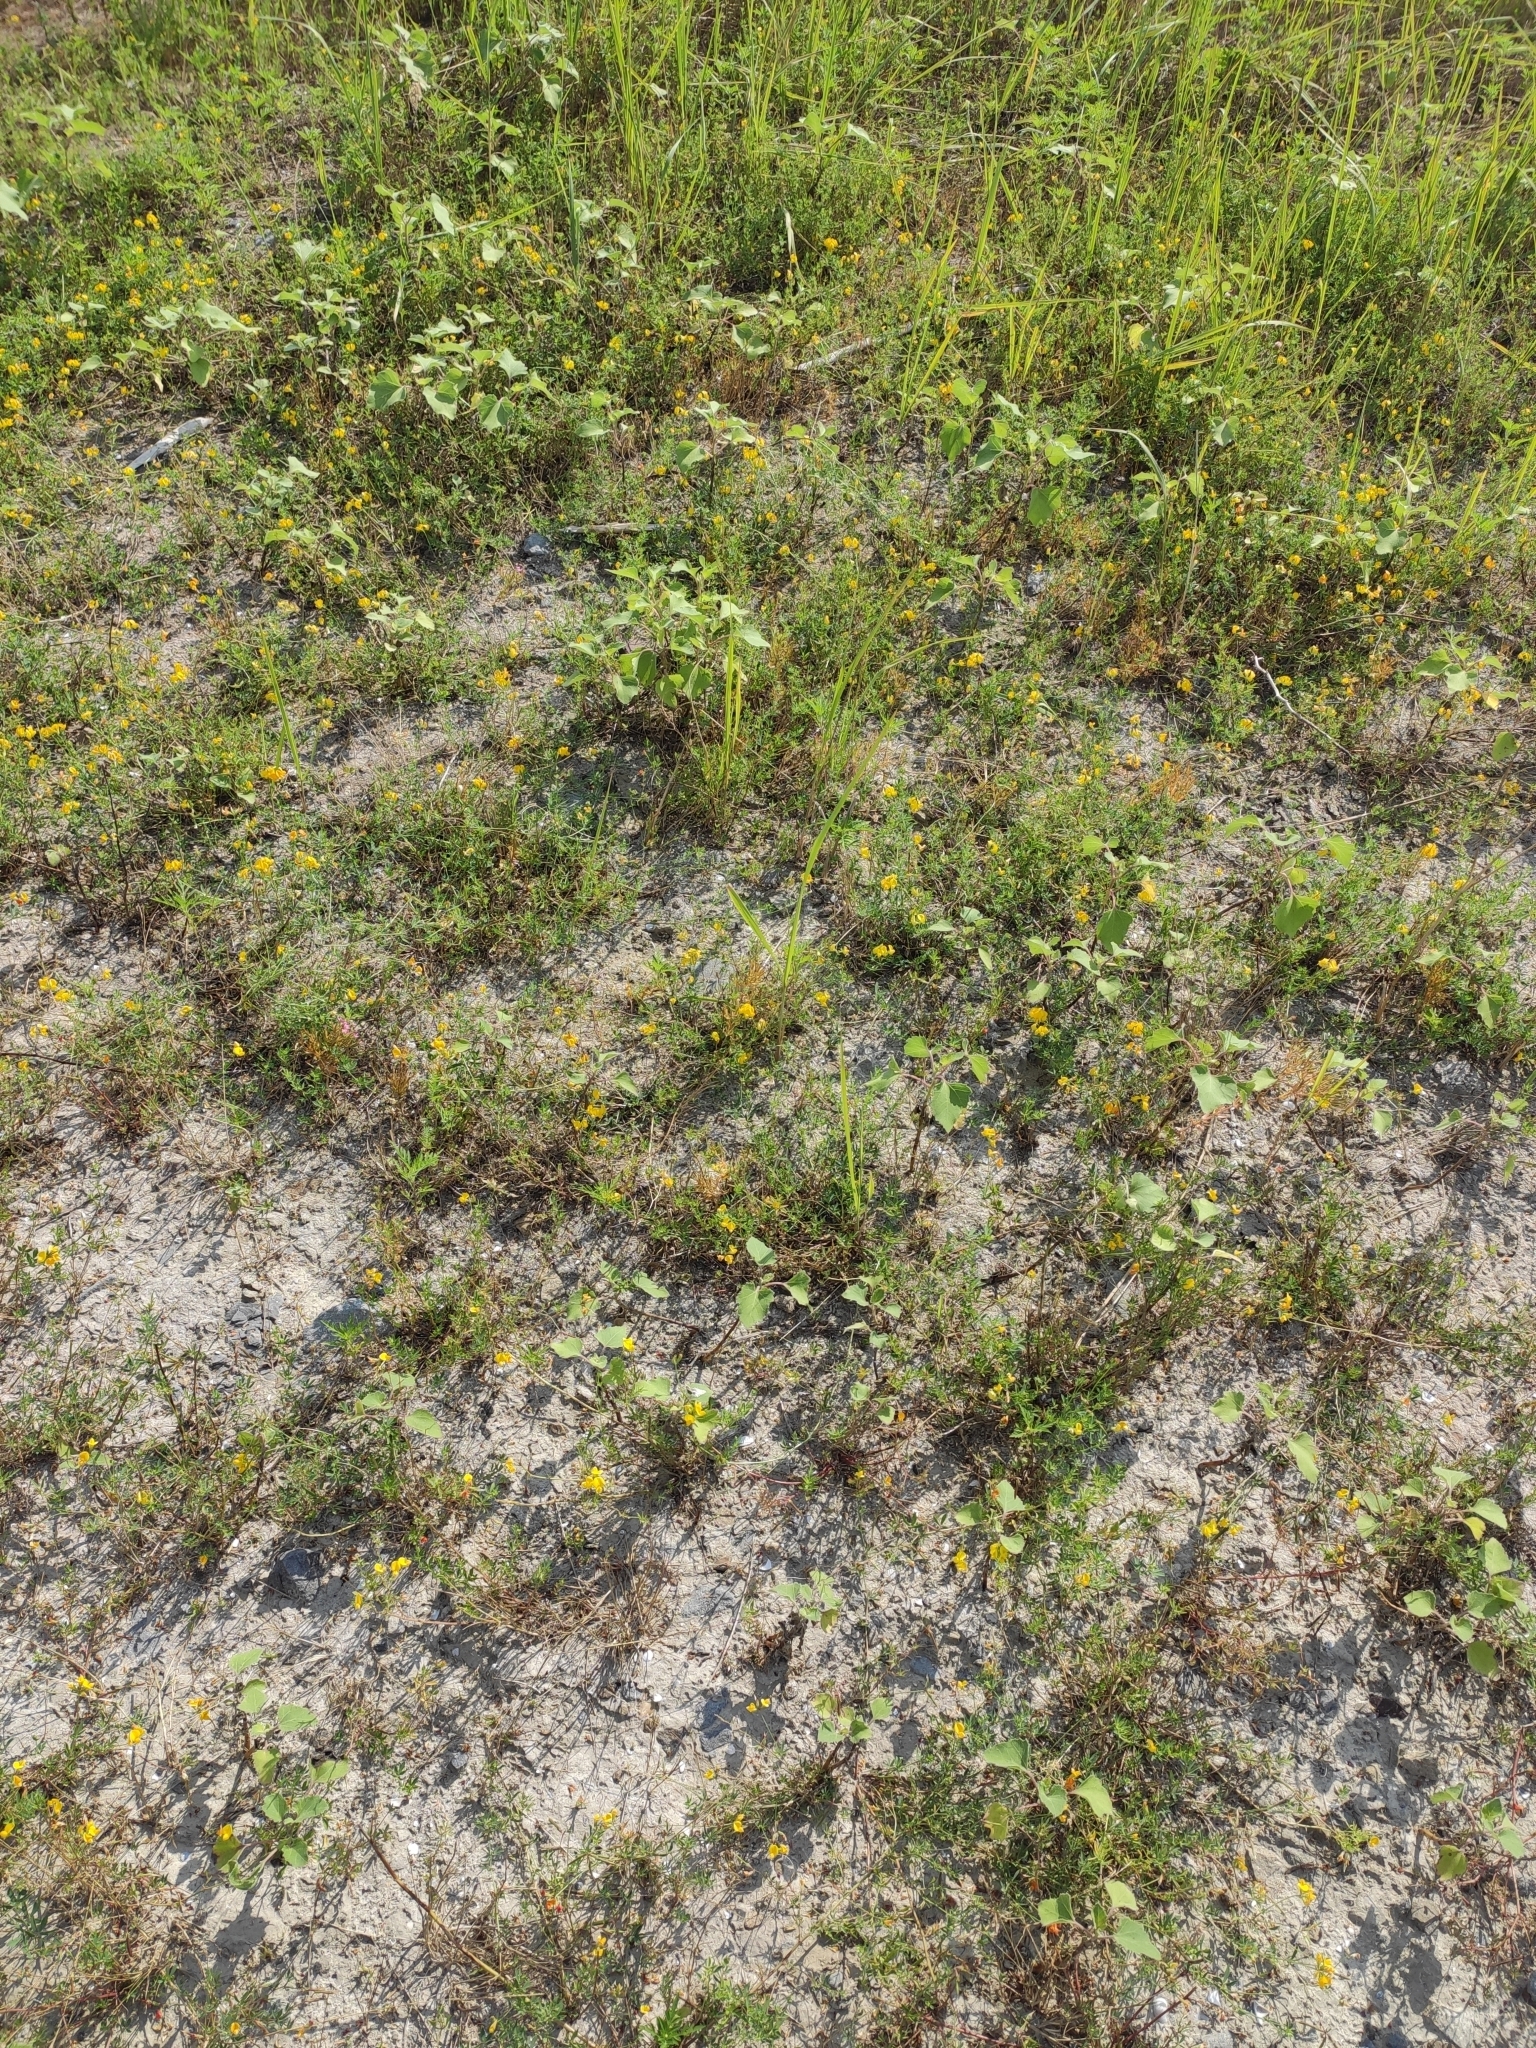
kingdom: Plantae
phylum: Tracheophyta
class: Magnoliopsida
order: Fabales
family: Fabaceae
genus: Lotus
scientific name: Lotus corniculatus
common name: Common bird's-foot-trefoil
